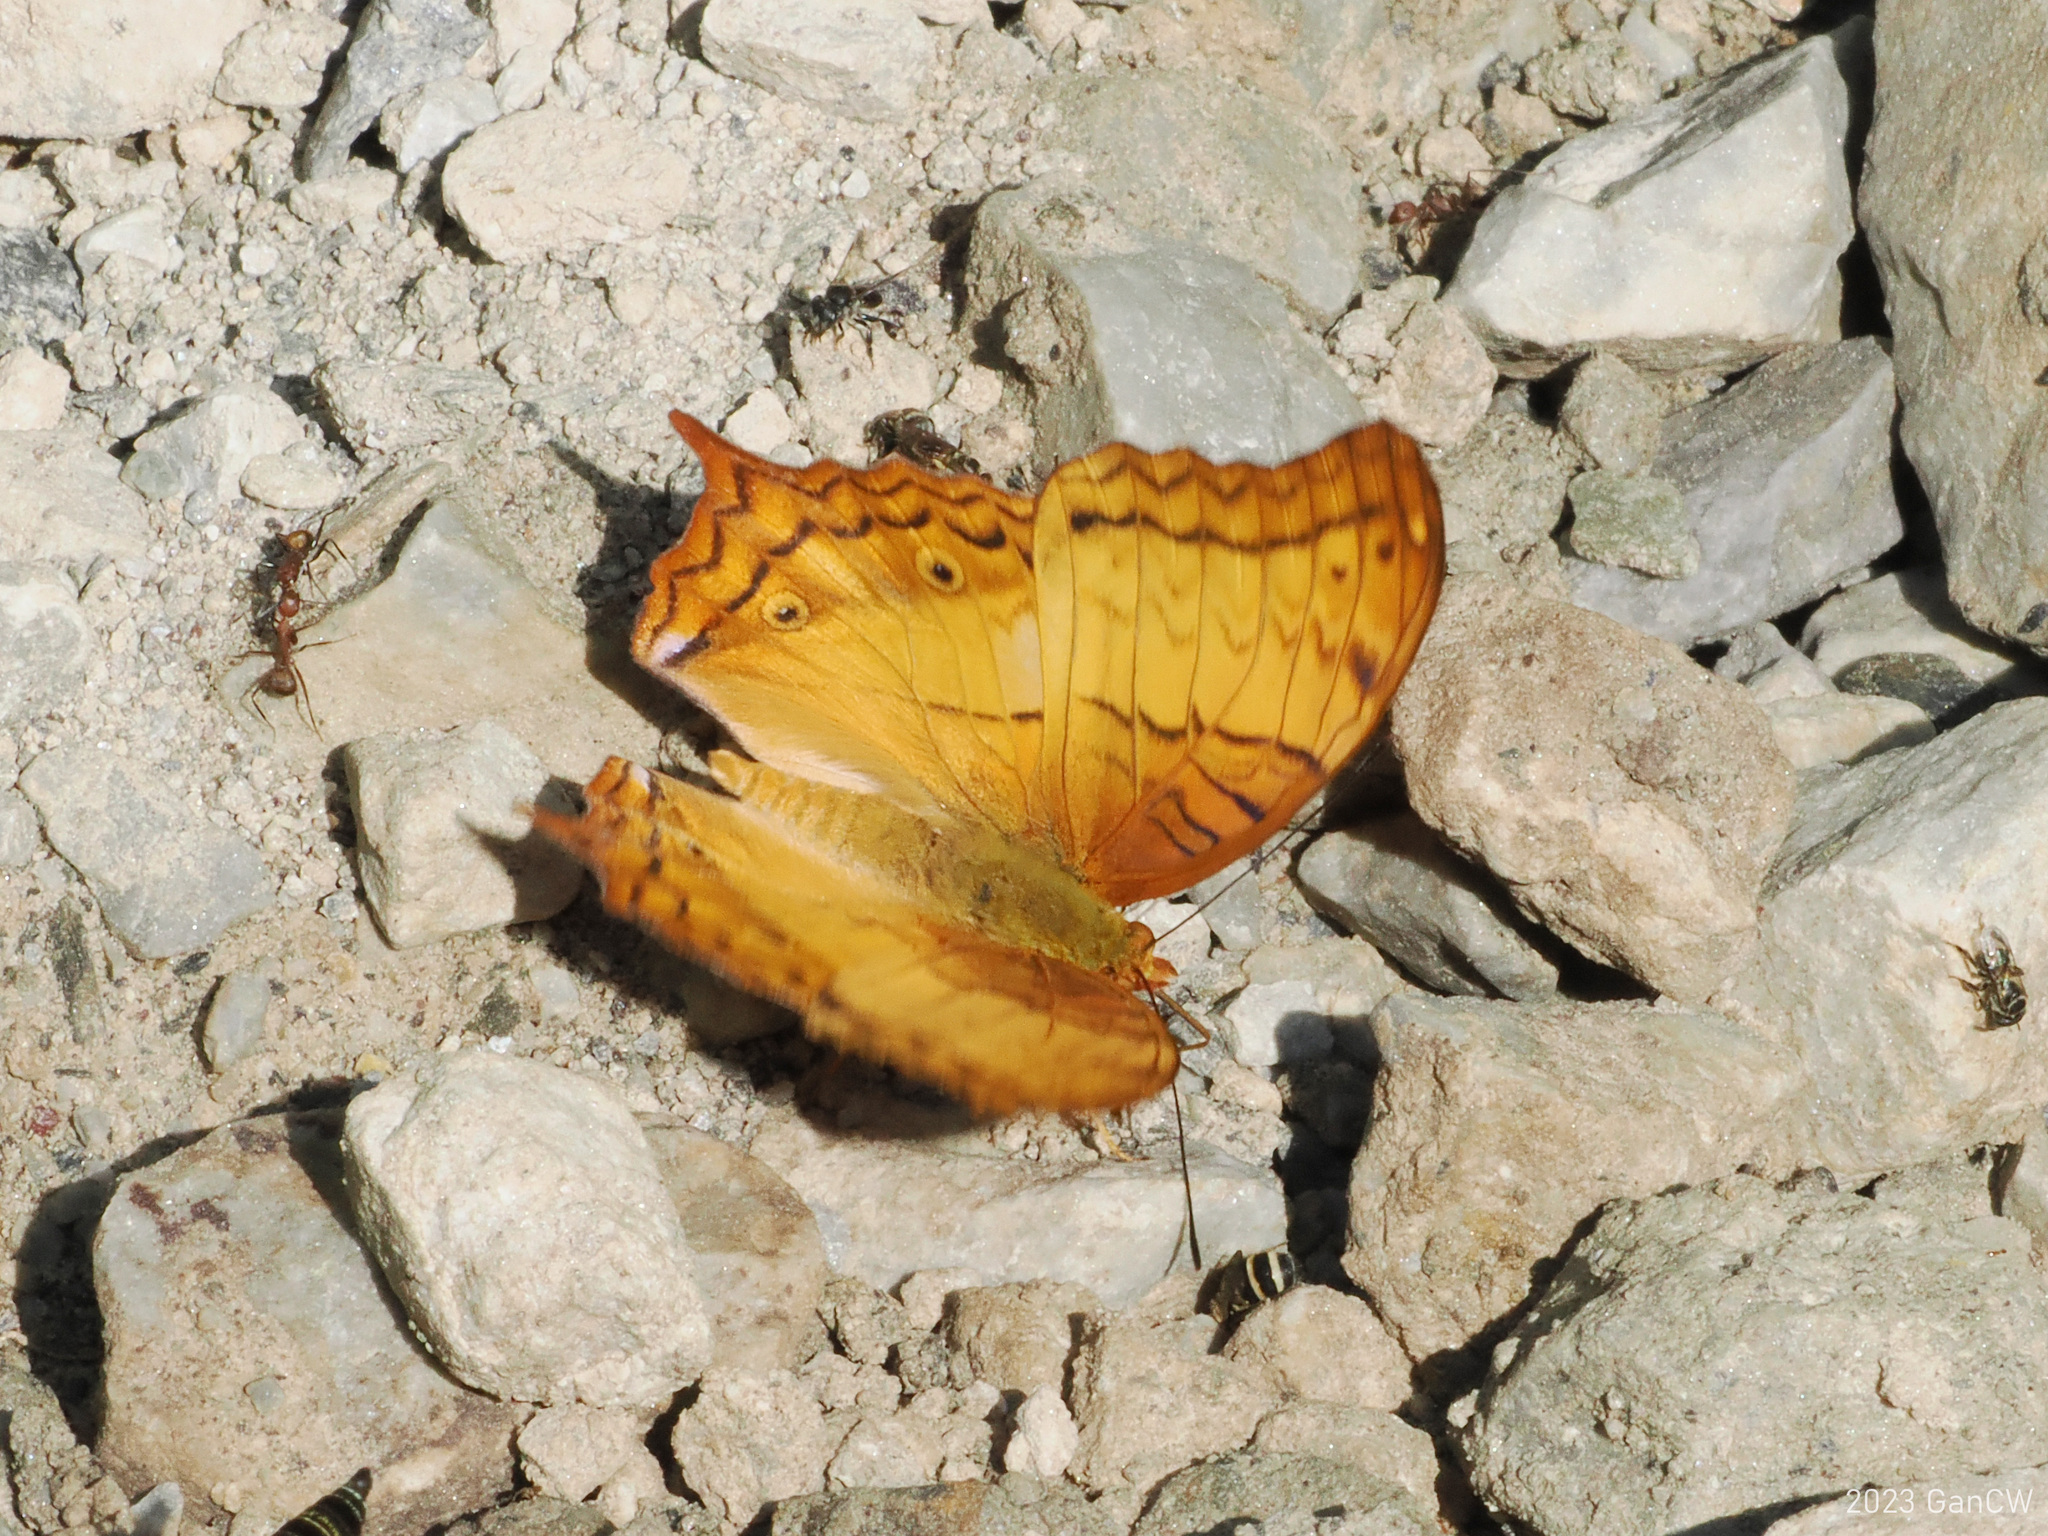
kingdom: Animalia
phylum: Arthropoda
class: Insecta
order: Lepidoptera
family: Nymphalidae
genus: Vindula
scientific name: Vindula erota
